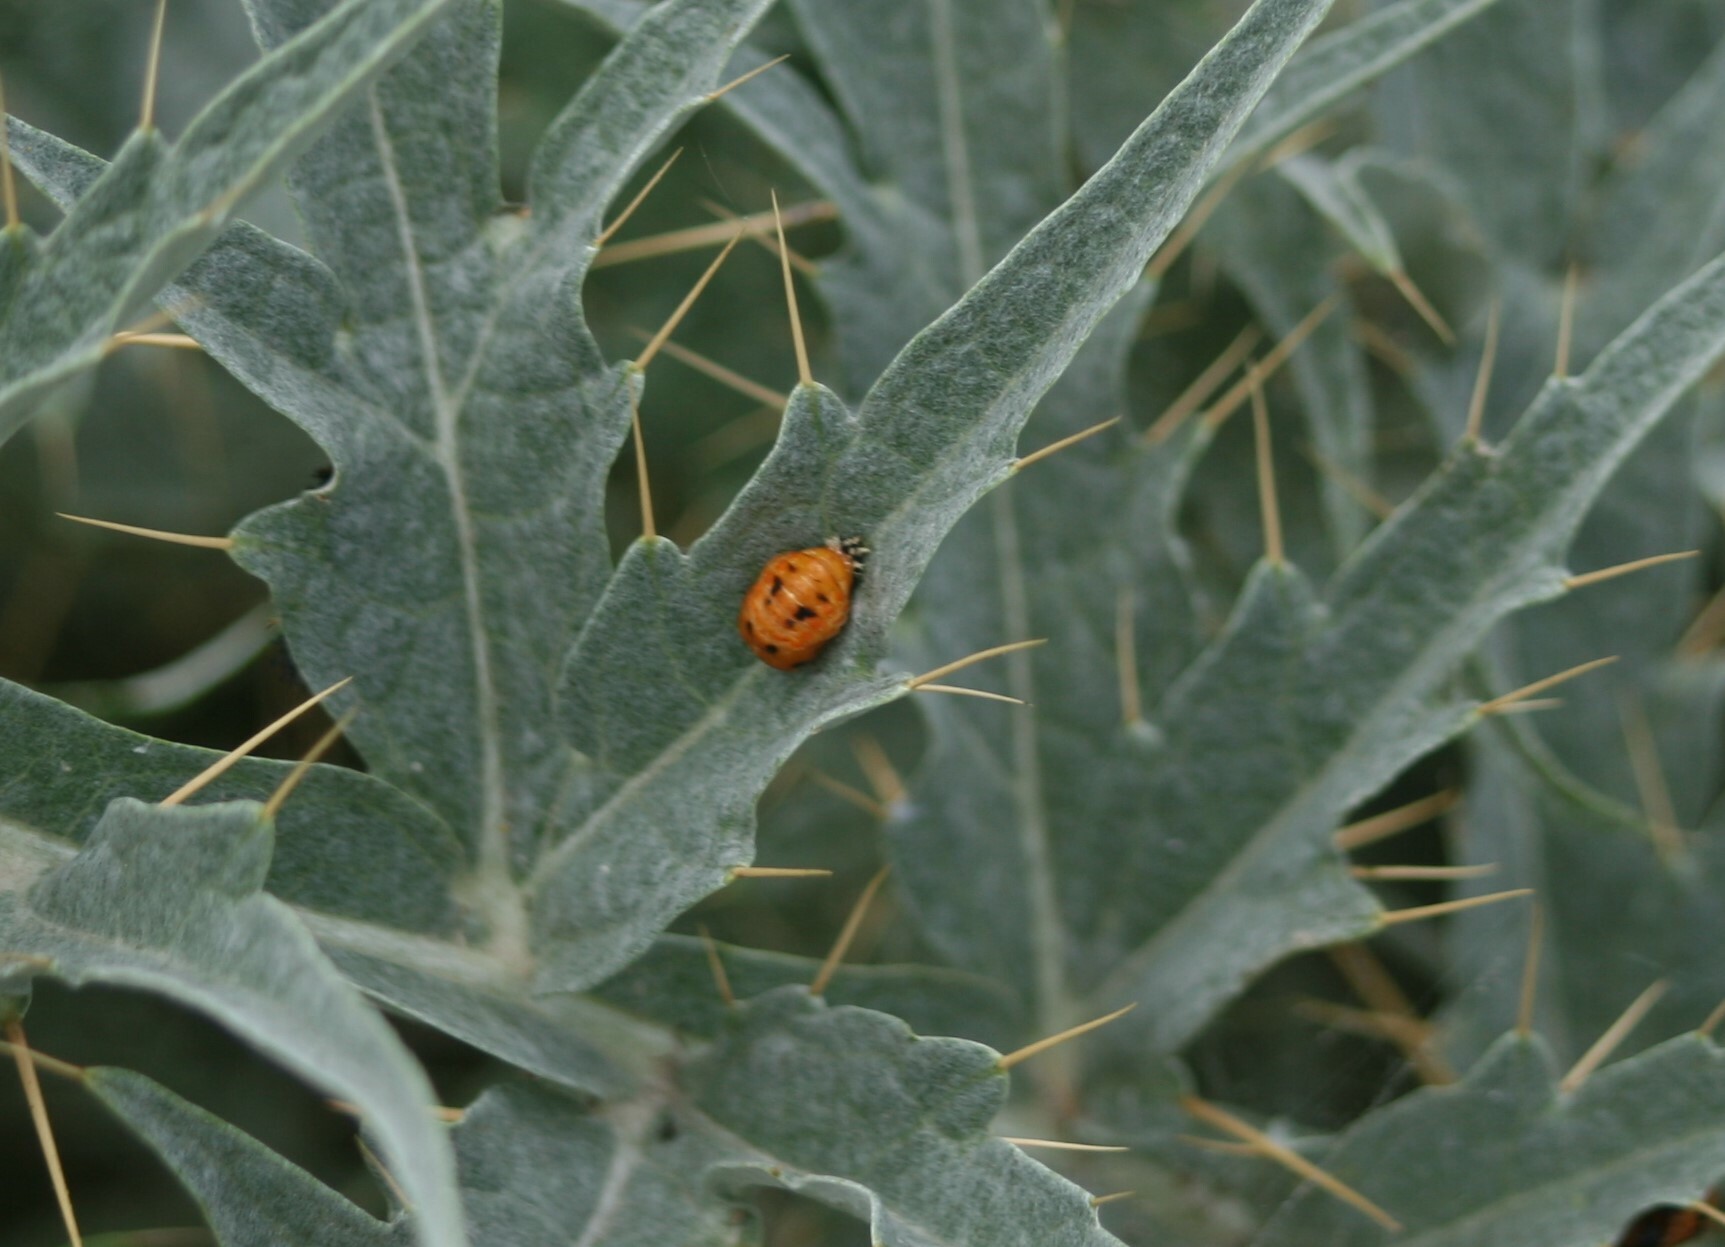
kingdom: Animalia
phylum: Arthropoda
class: Insecta
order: Coleoptera
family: Coccinellidae
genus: Harmonia
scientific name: Harmonia axyridis
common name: Harlequin ladybird
